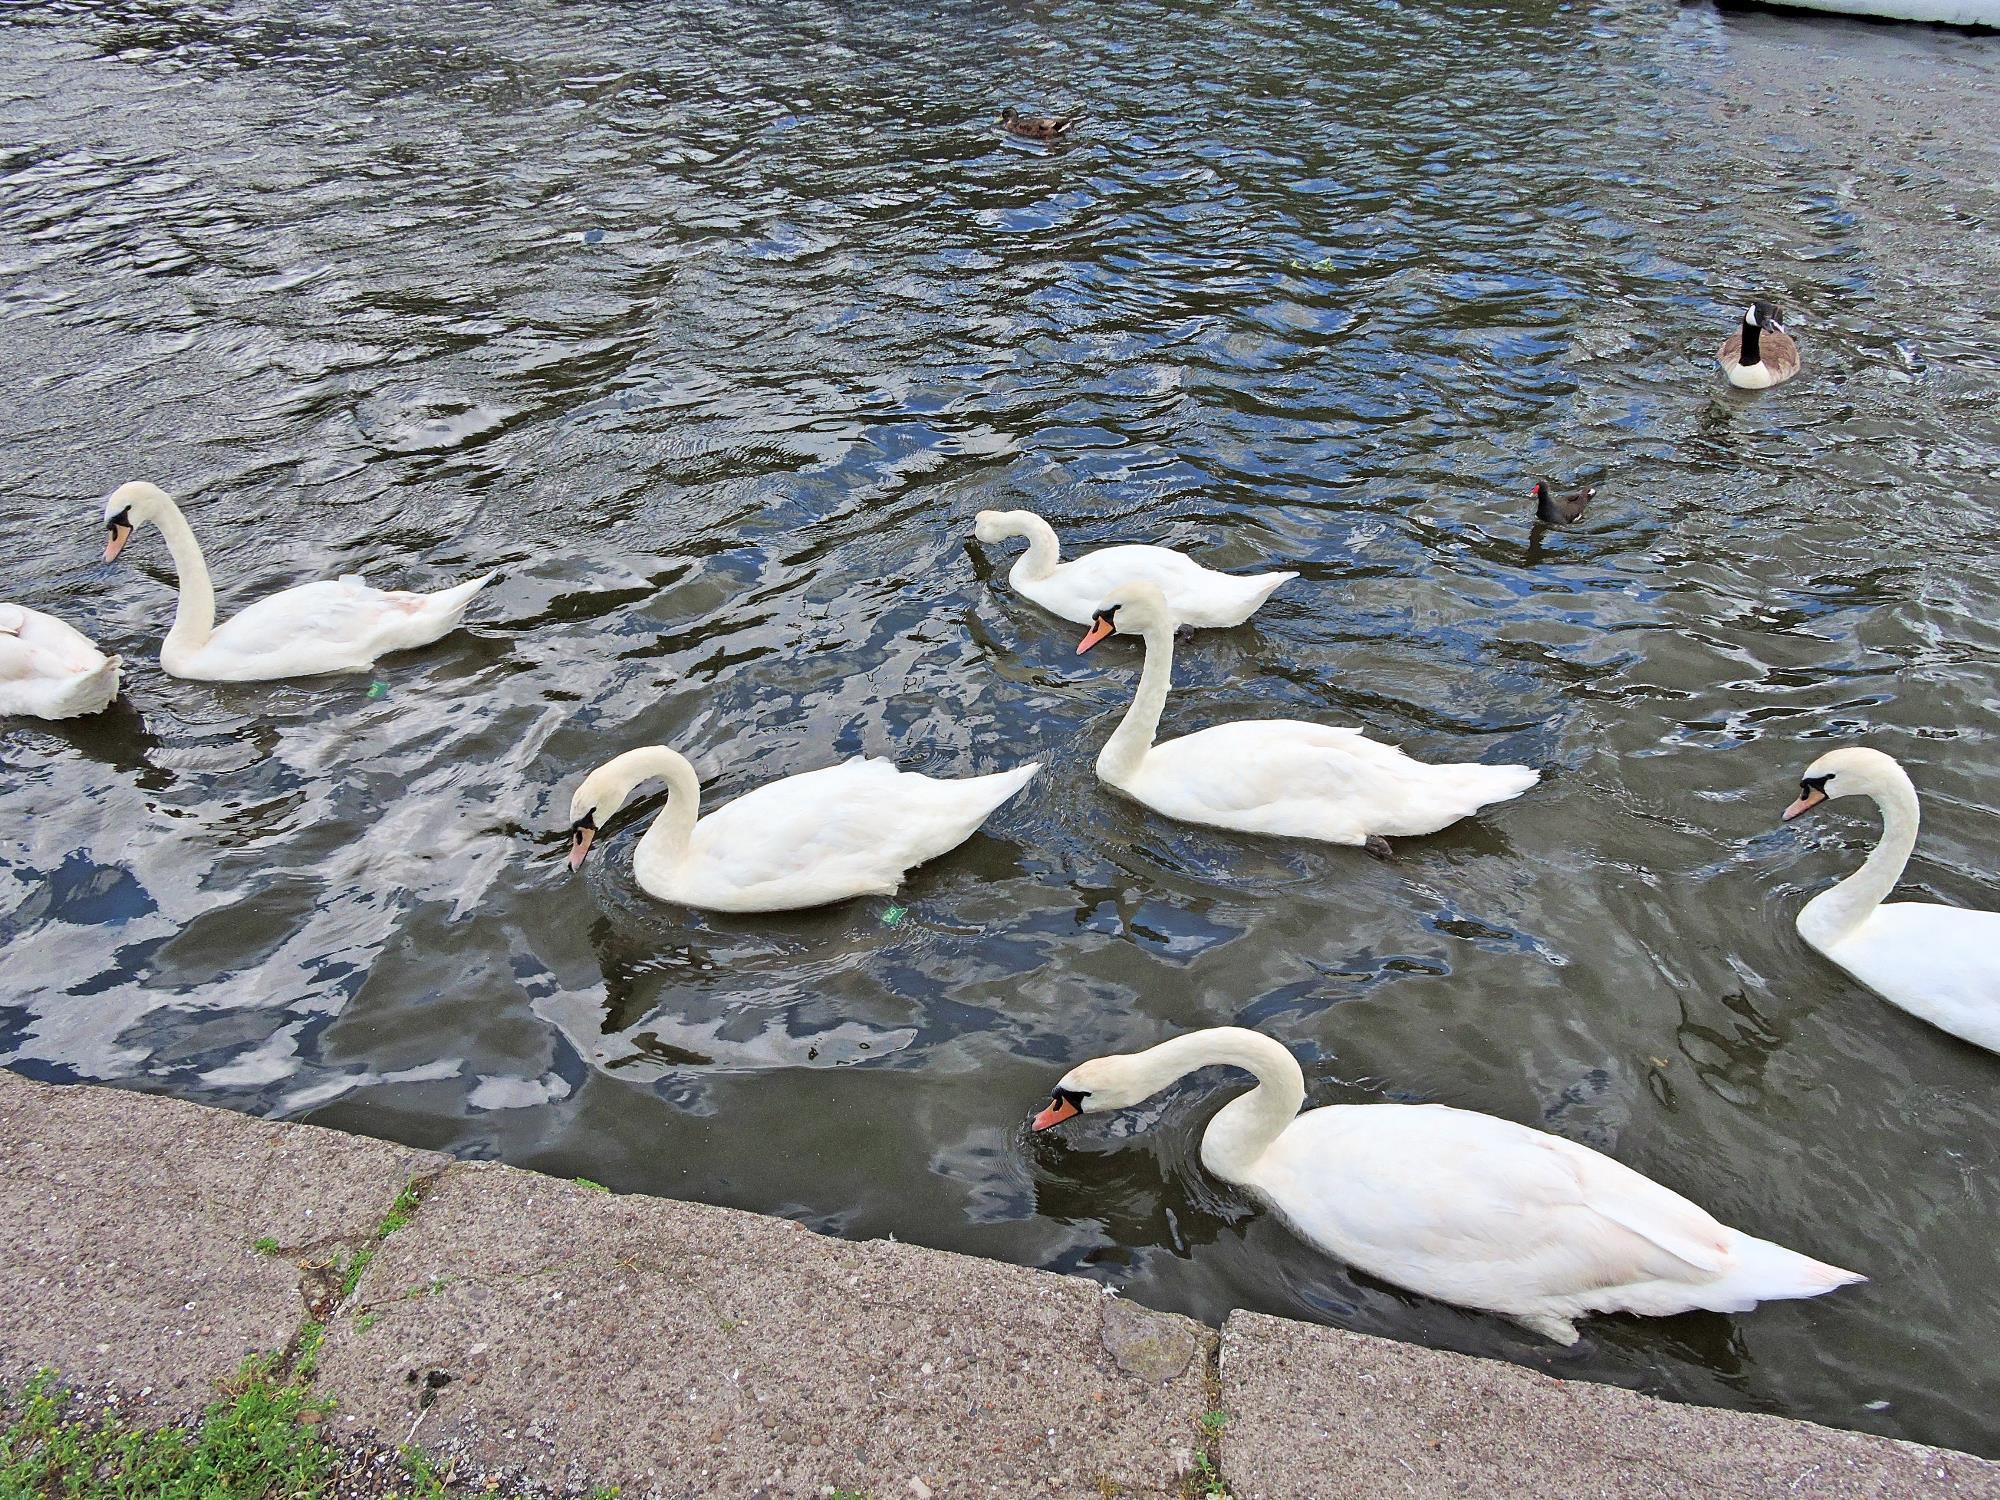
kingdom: Animalia
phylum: Chordata
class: Aves
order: Anseriformes
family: Anatidae
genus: Cygnus
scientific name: Cygnus olor
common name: Mute swan
